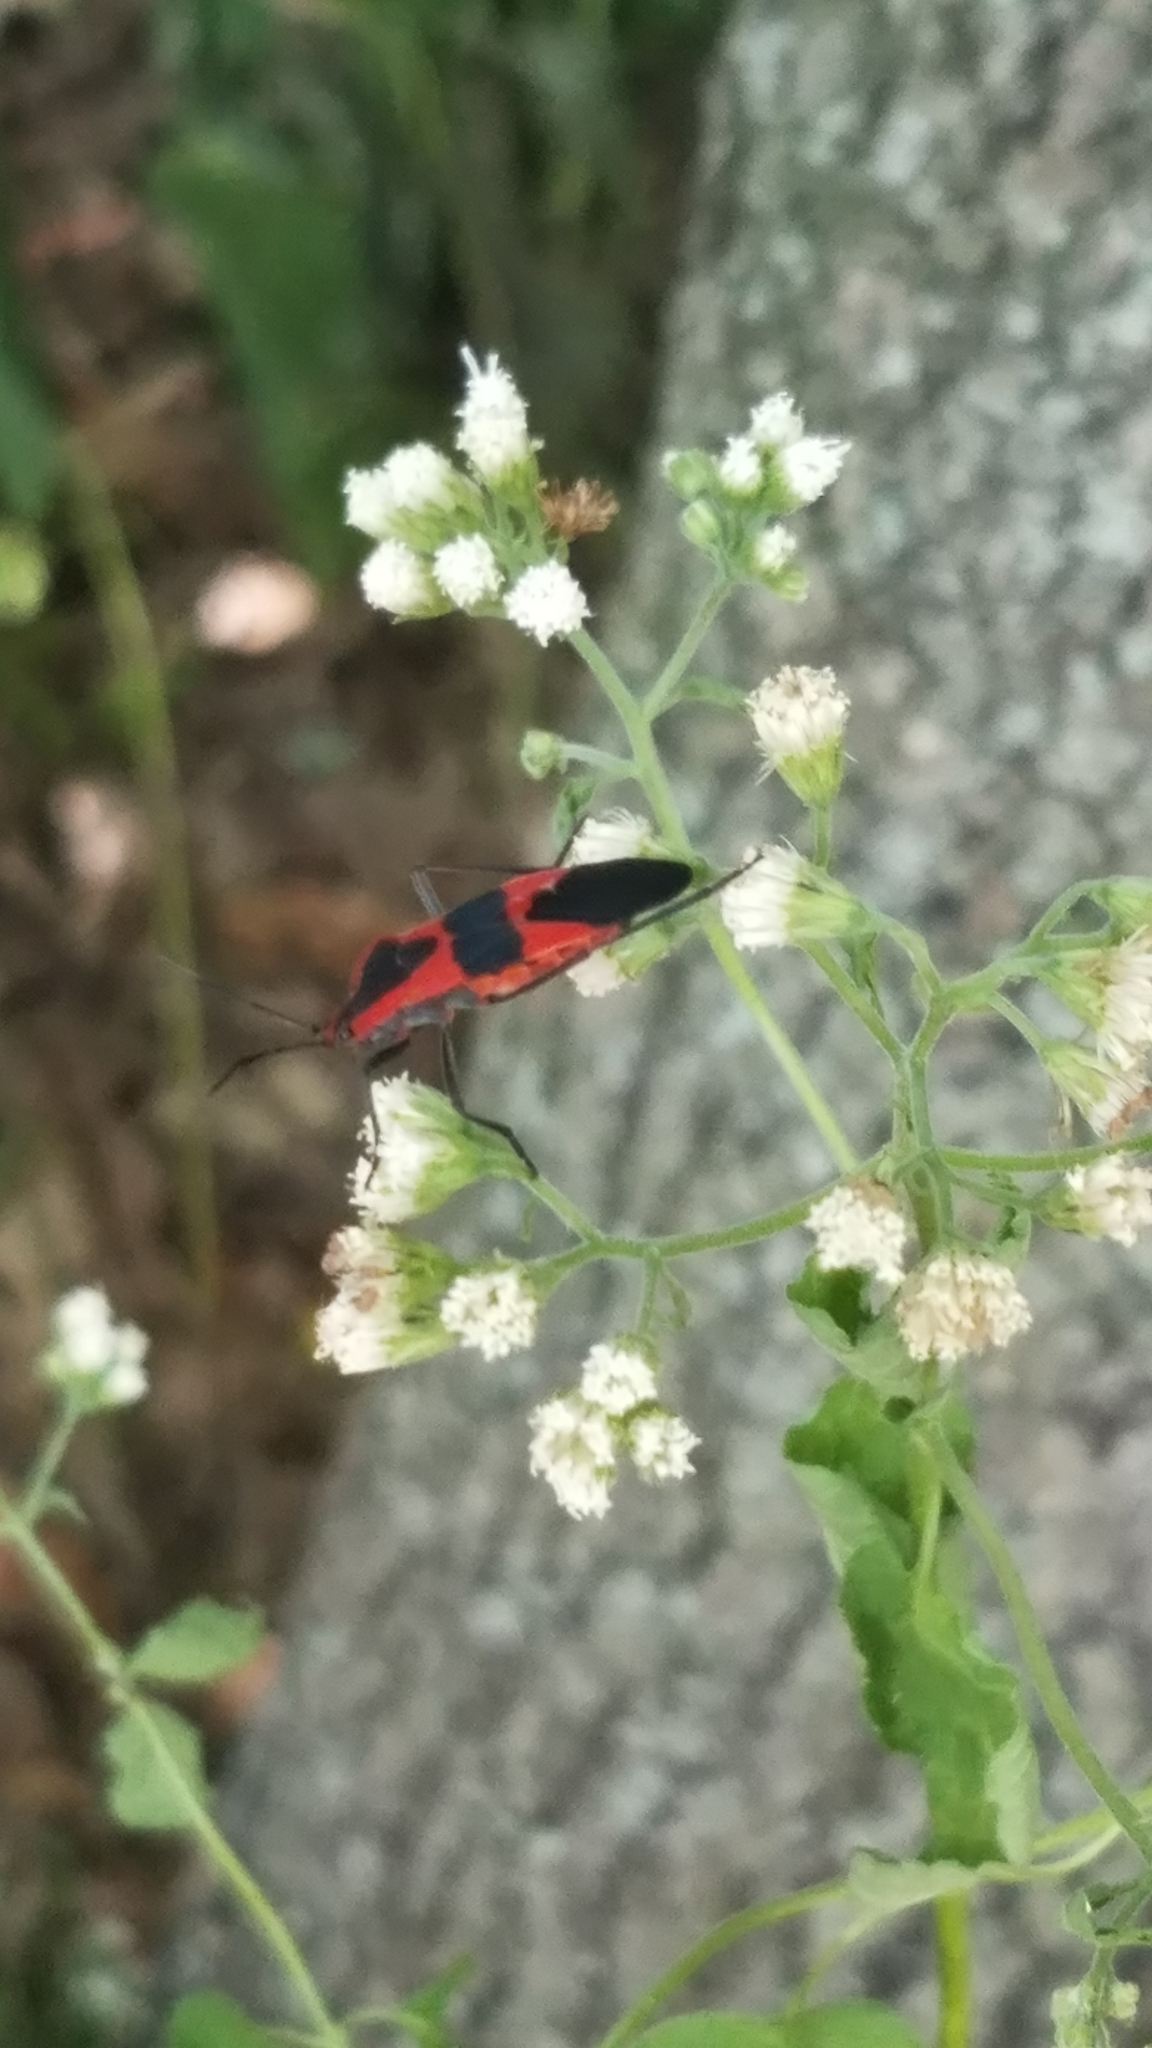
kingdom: Animalia
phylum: Arthropoda
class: Insecta
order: Hemiptera
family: Lygaeidae
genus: Oncopeltus
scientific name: Oncopeltus fasciatus
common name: Large milkweed bug
